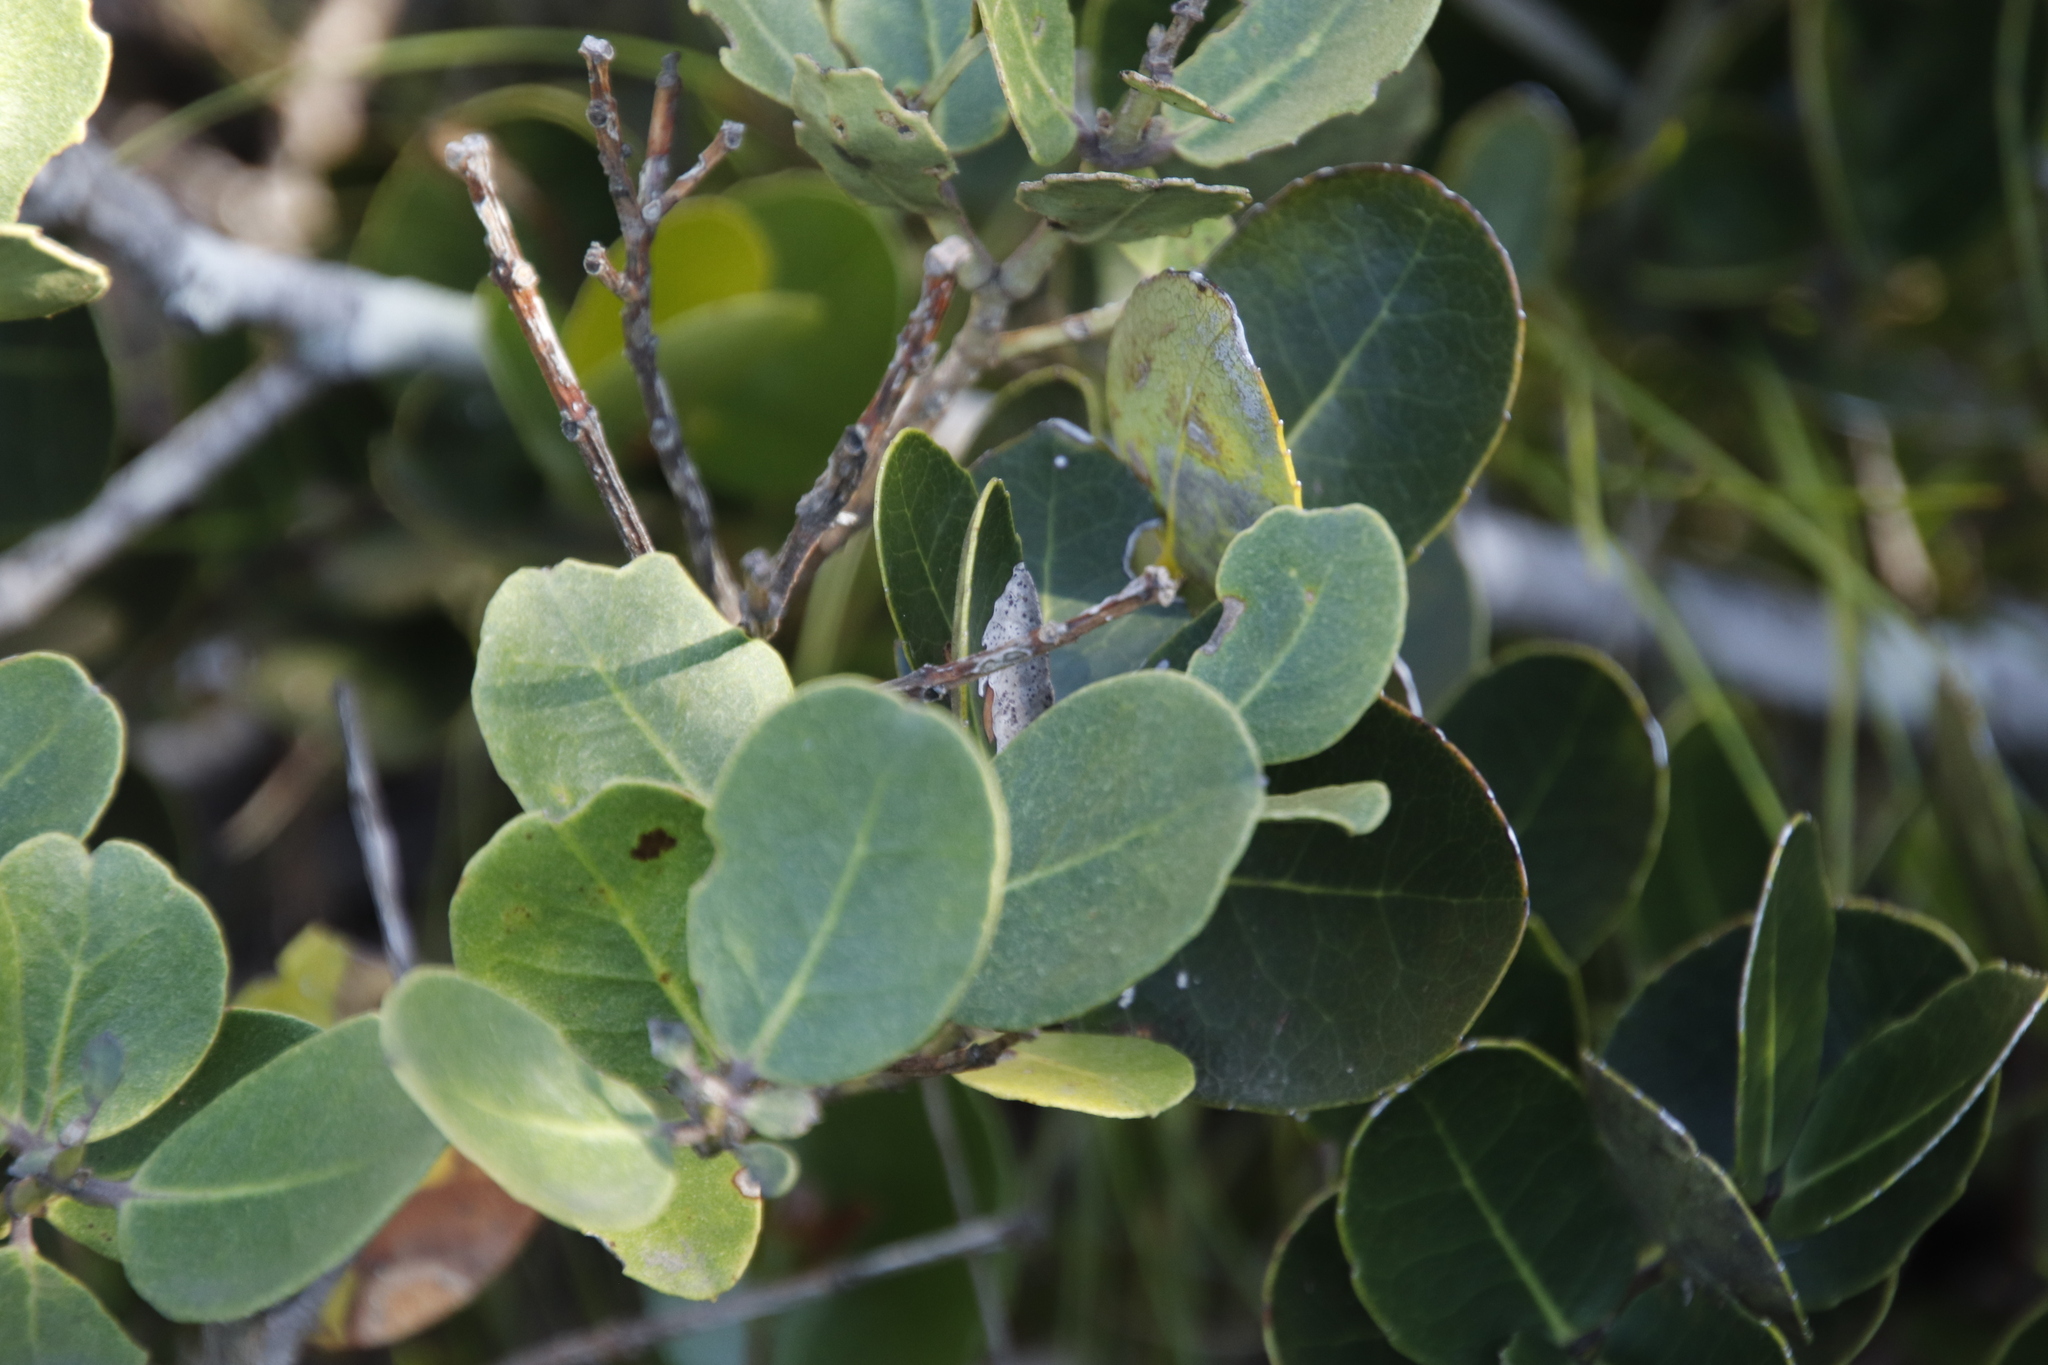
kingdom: Plantae
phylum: Tracheophyta
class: Magnoliopsida
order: Celastrales
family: Celastraceae
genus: Cassine
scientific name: Cassine peragua
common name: Cape saffron
